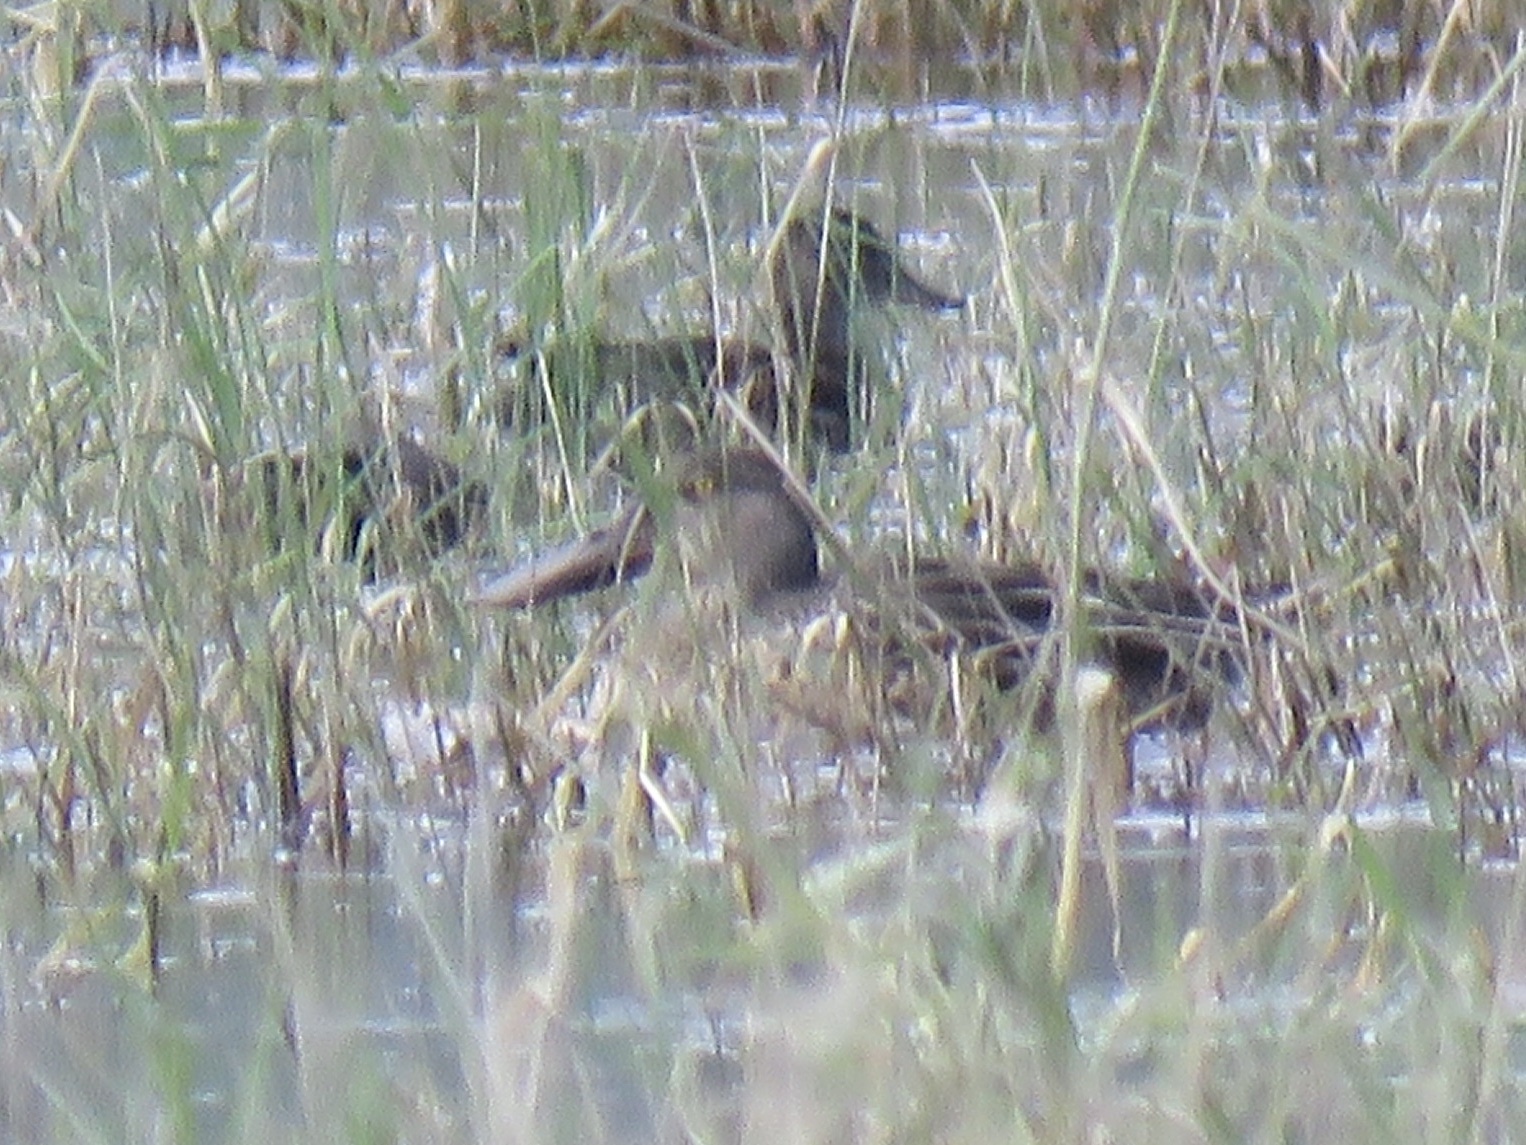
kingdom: Animalia
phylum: Chordata
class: Aves
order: Anseriformes
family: Anatidae
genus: Spatula
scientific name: Spatula clypeata
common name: Northern shoveler
